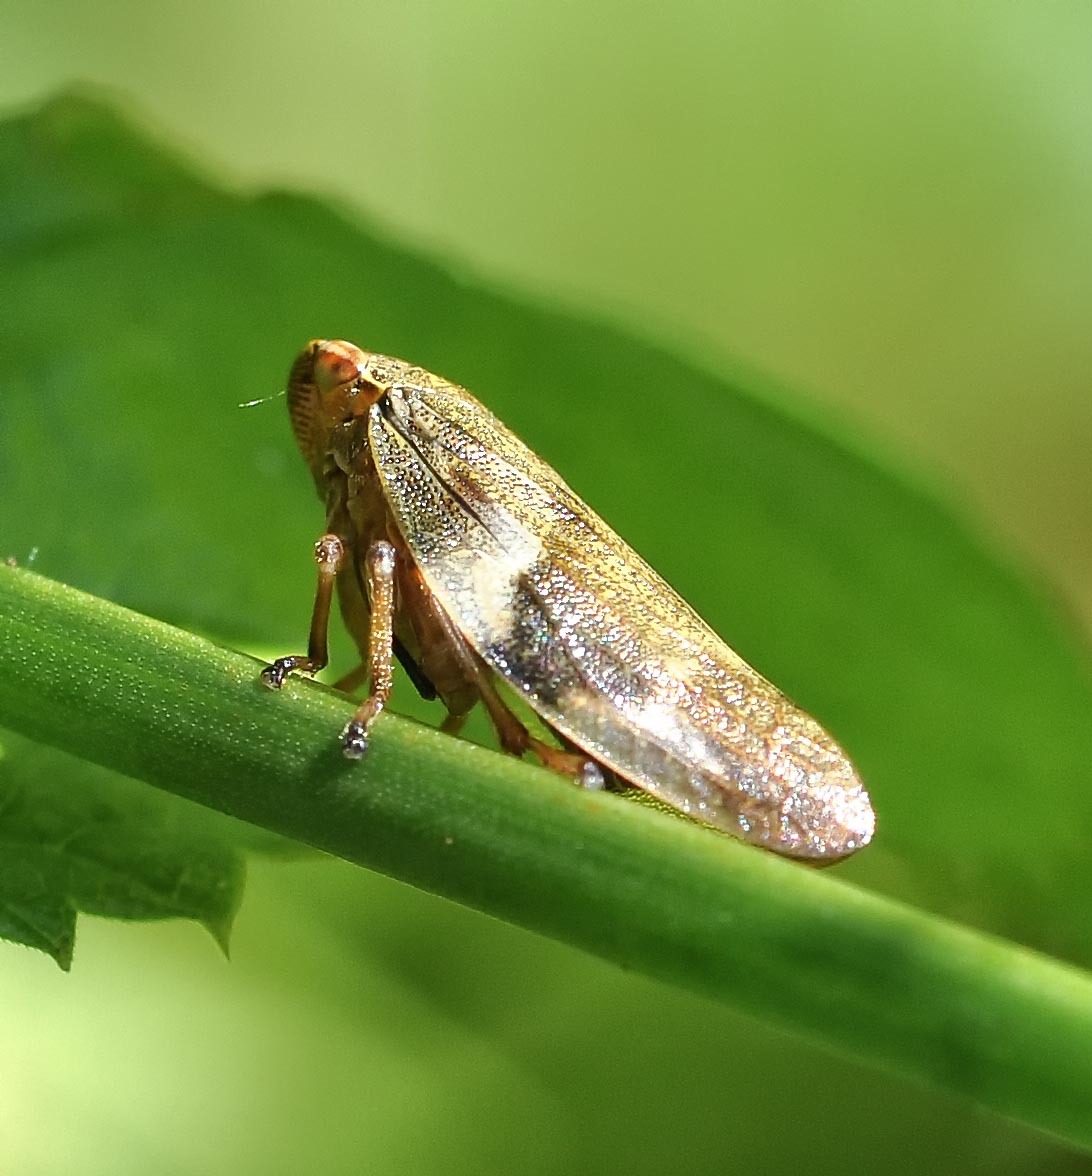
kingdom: Animalia
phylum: Arthropoda
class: Insecta
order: Hemiptera
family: Aphrophoridae
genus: Aphrophora
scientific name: Aphrophora alni
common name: European alder spittlebug
